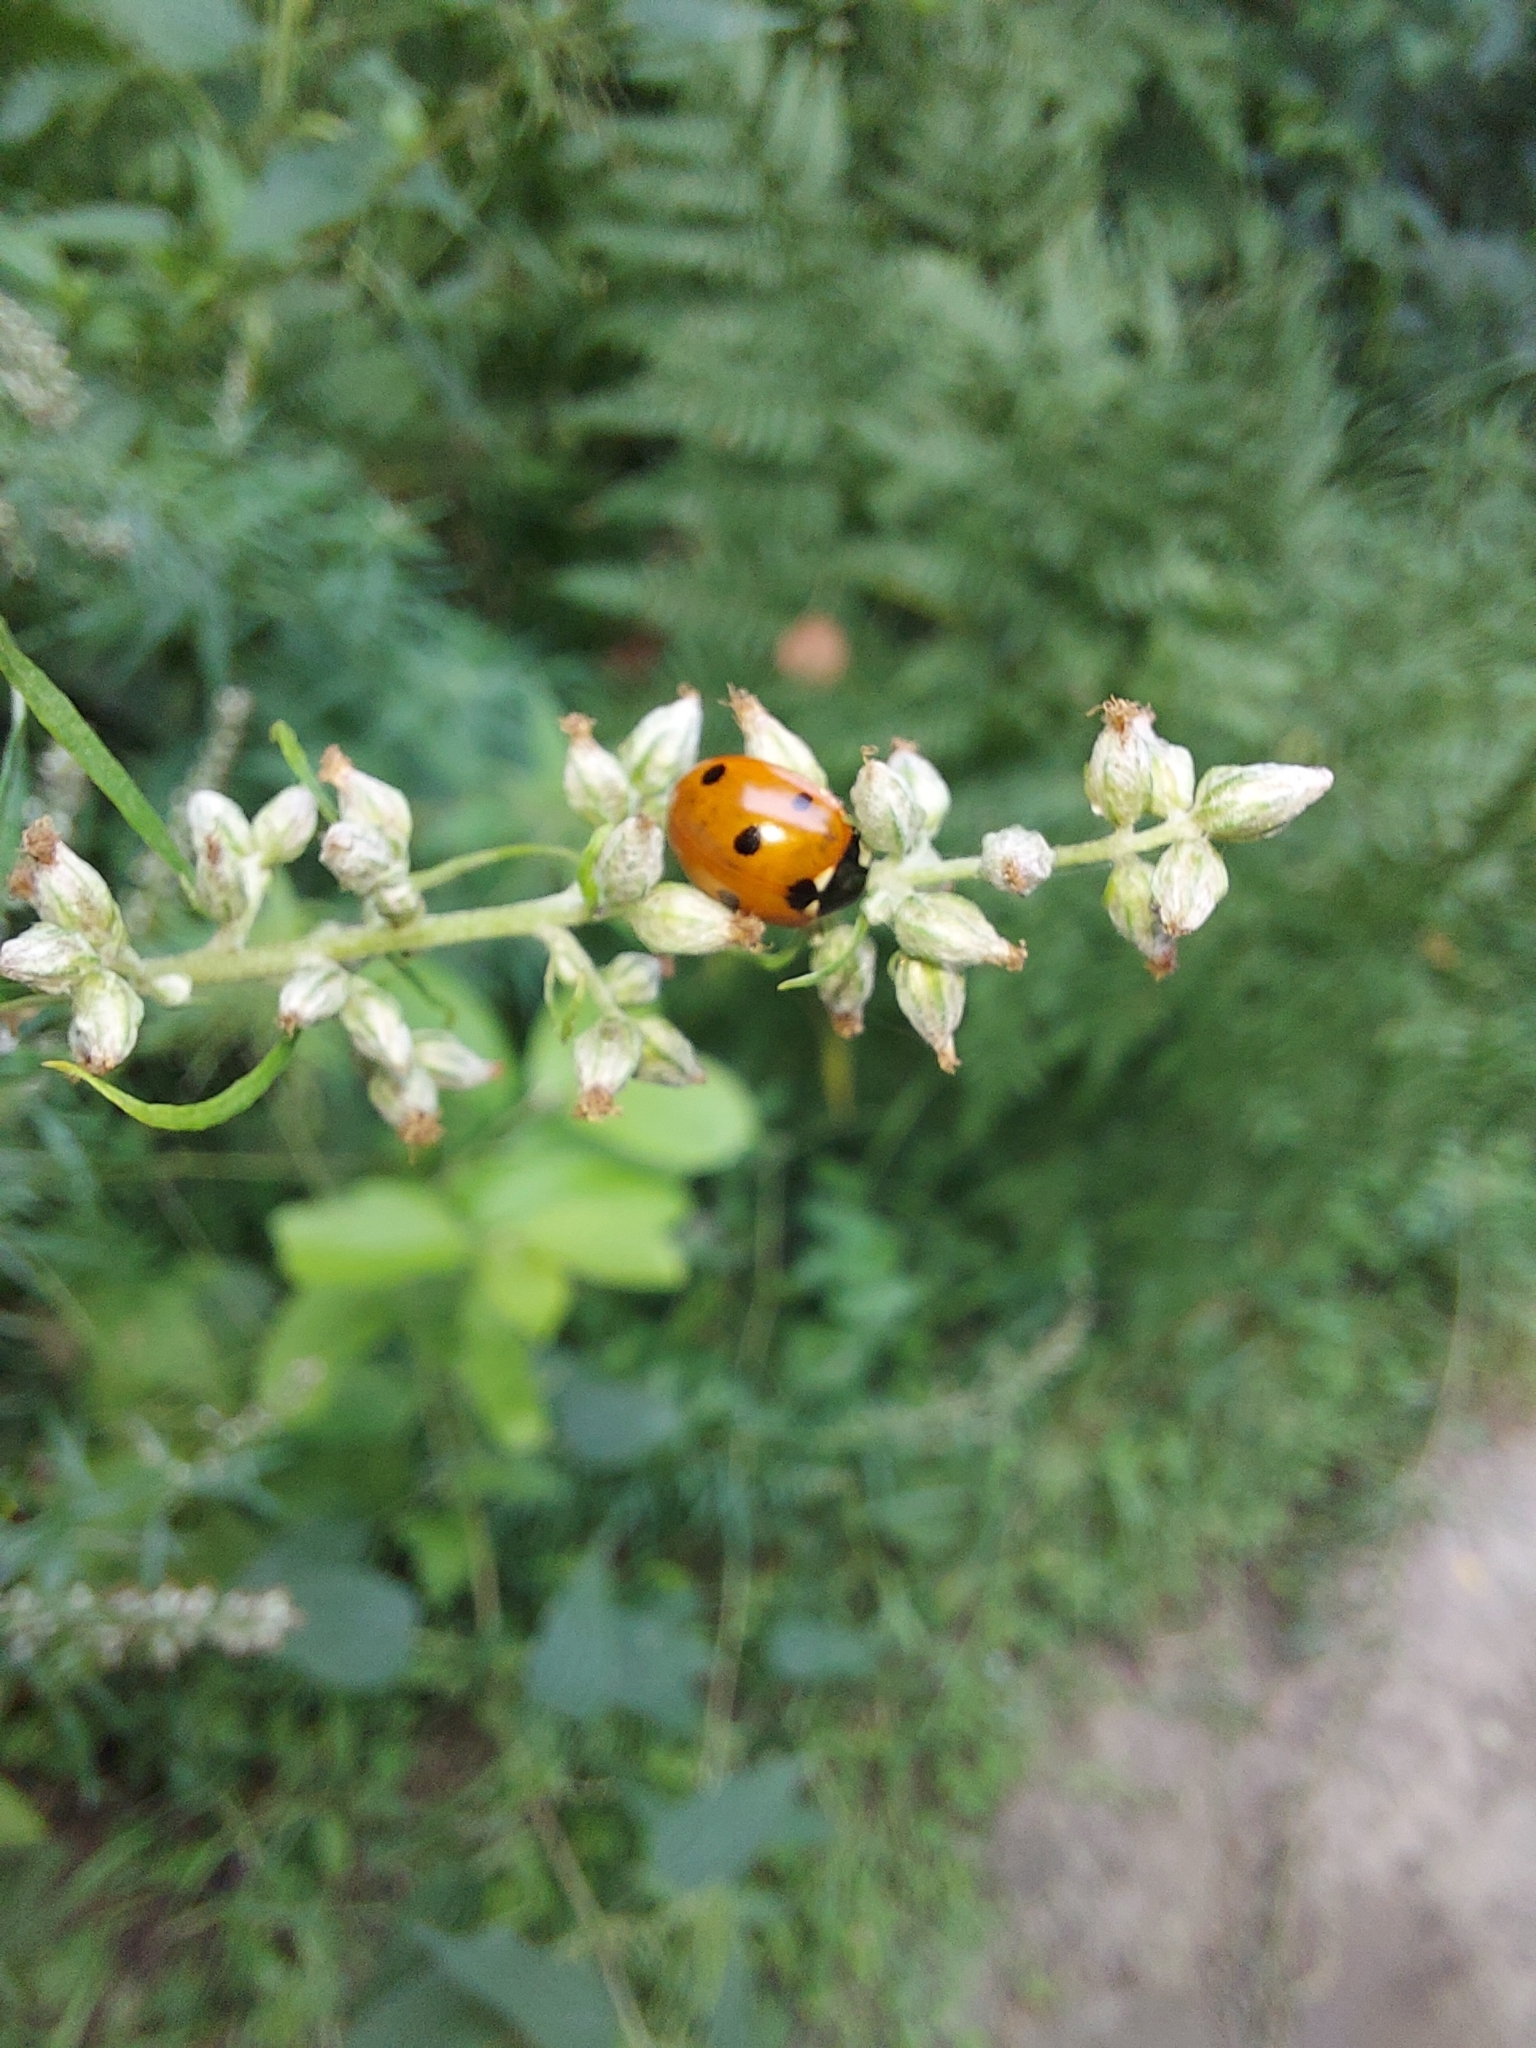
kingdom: Animalia
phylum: Arthropoda
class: Insecta
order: Coleoptera
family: Coccinellidae
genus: Coccinella
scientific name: Coccinella septempunctata
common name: Sevenspotted lady beetle
